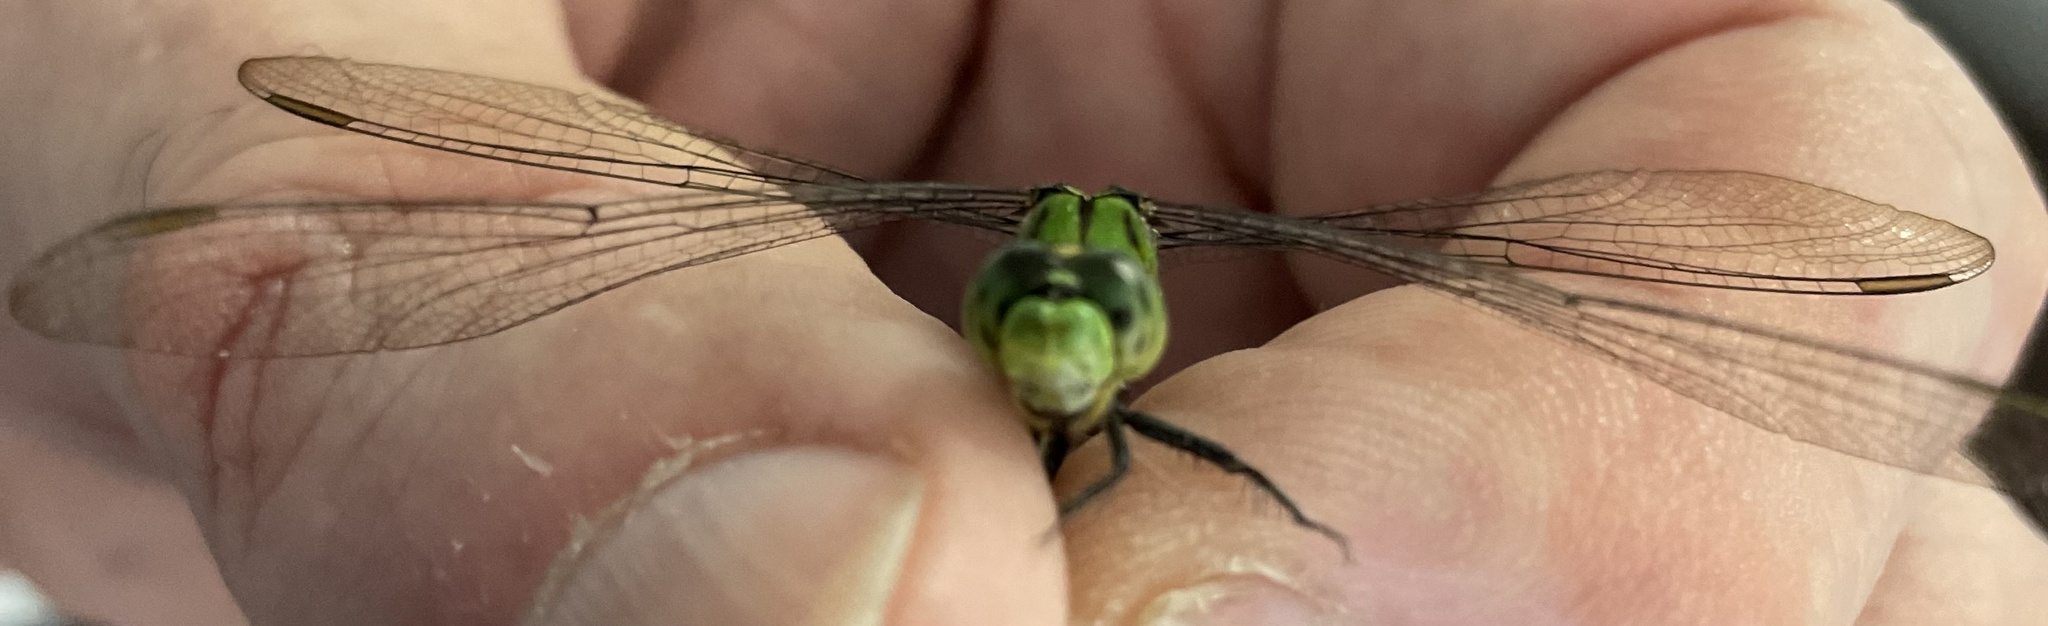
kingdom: Animalia
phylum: Arthropoda
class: Insecta
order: Odonata
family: Libellulidae
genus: Erythemis
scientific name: Erythemis simplicicollis
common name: Eastern pondhawk
